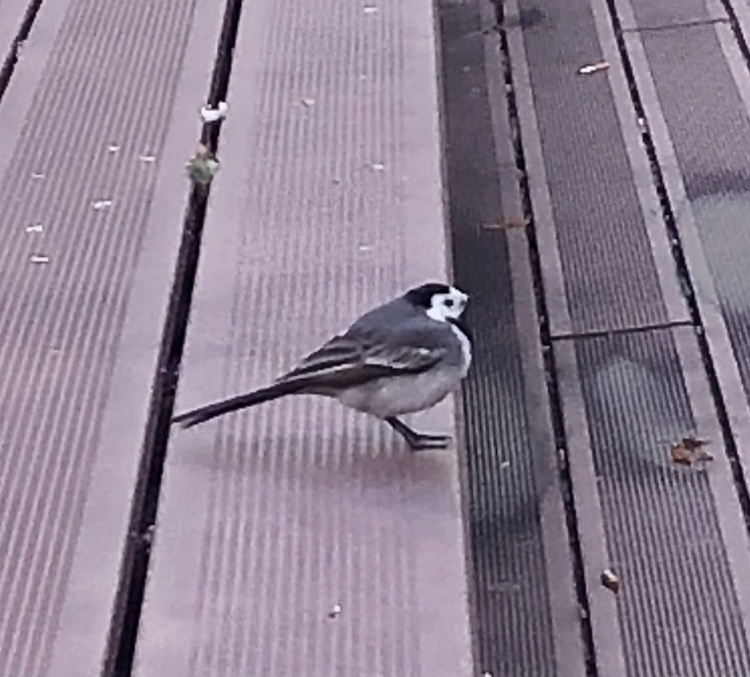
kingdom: Animalia
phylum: Chordata
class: Aves
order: Passeriformes
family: Motacillidae
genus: Motacilla
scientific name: Motacilla alba
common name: White wagtail
